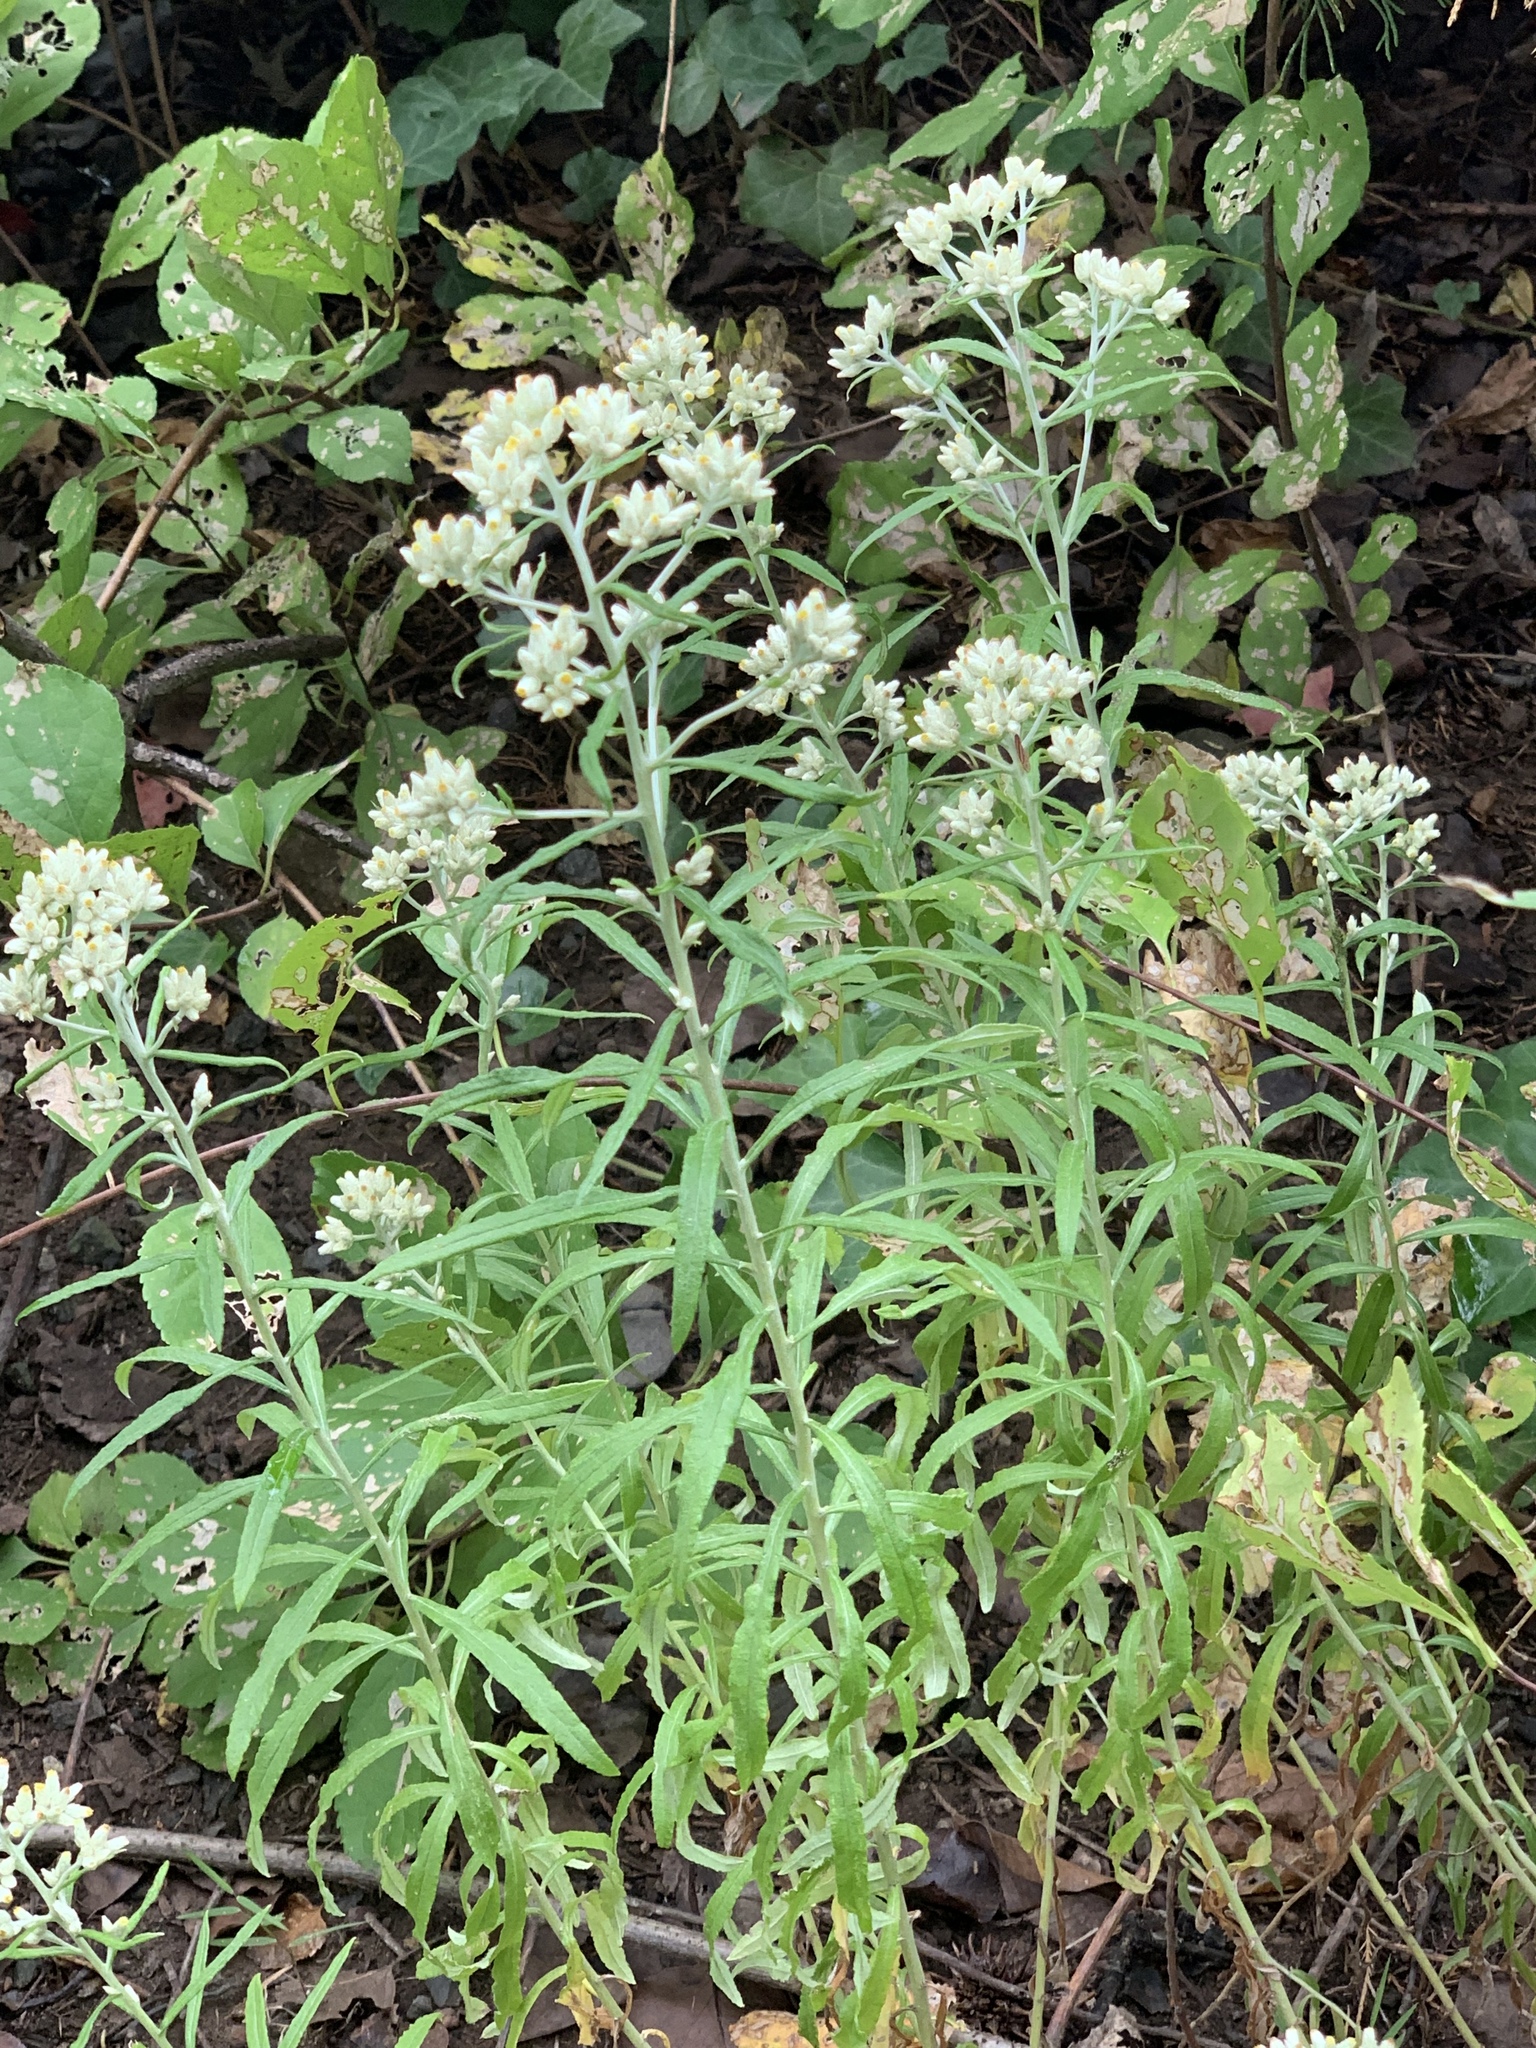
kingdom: Plantae
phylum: Tracheophyta
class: Magnoliopsida
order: Asterales
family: Asteraceae
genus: Pseudognaphalium
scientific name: Pseudognaphalium obtusifolium
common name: Eastern rabbit-tobacco
